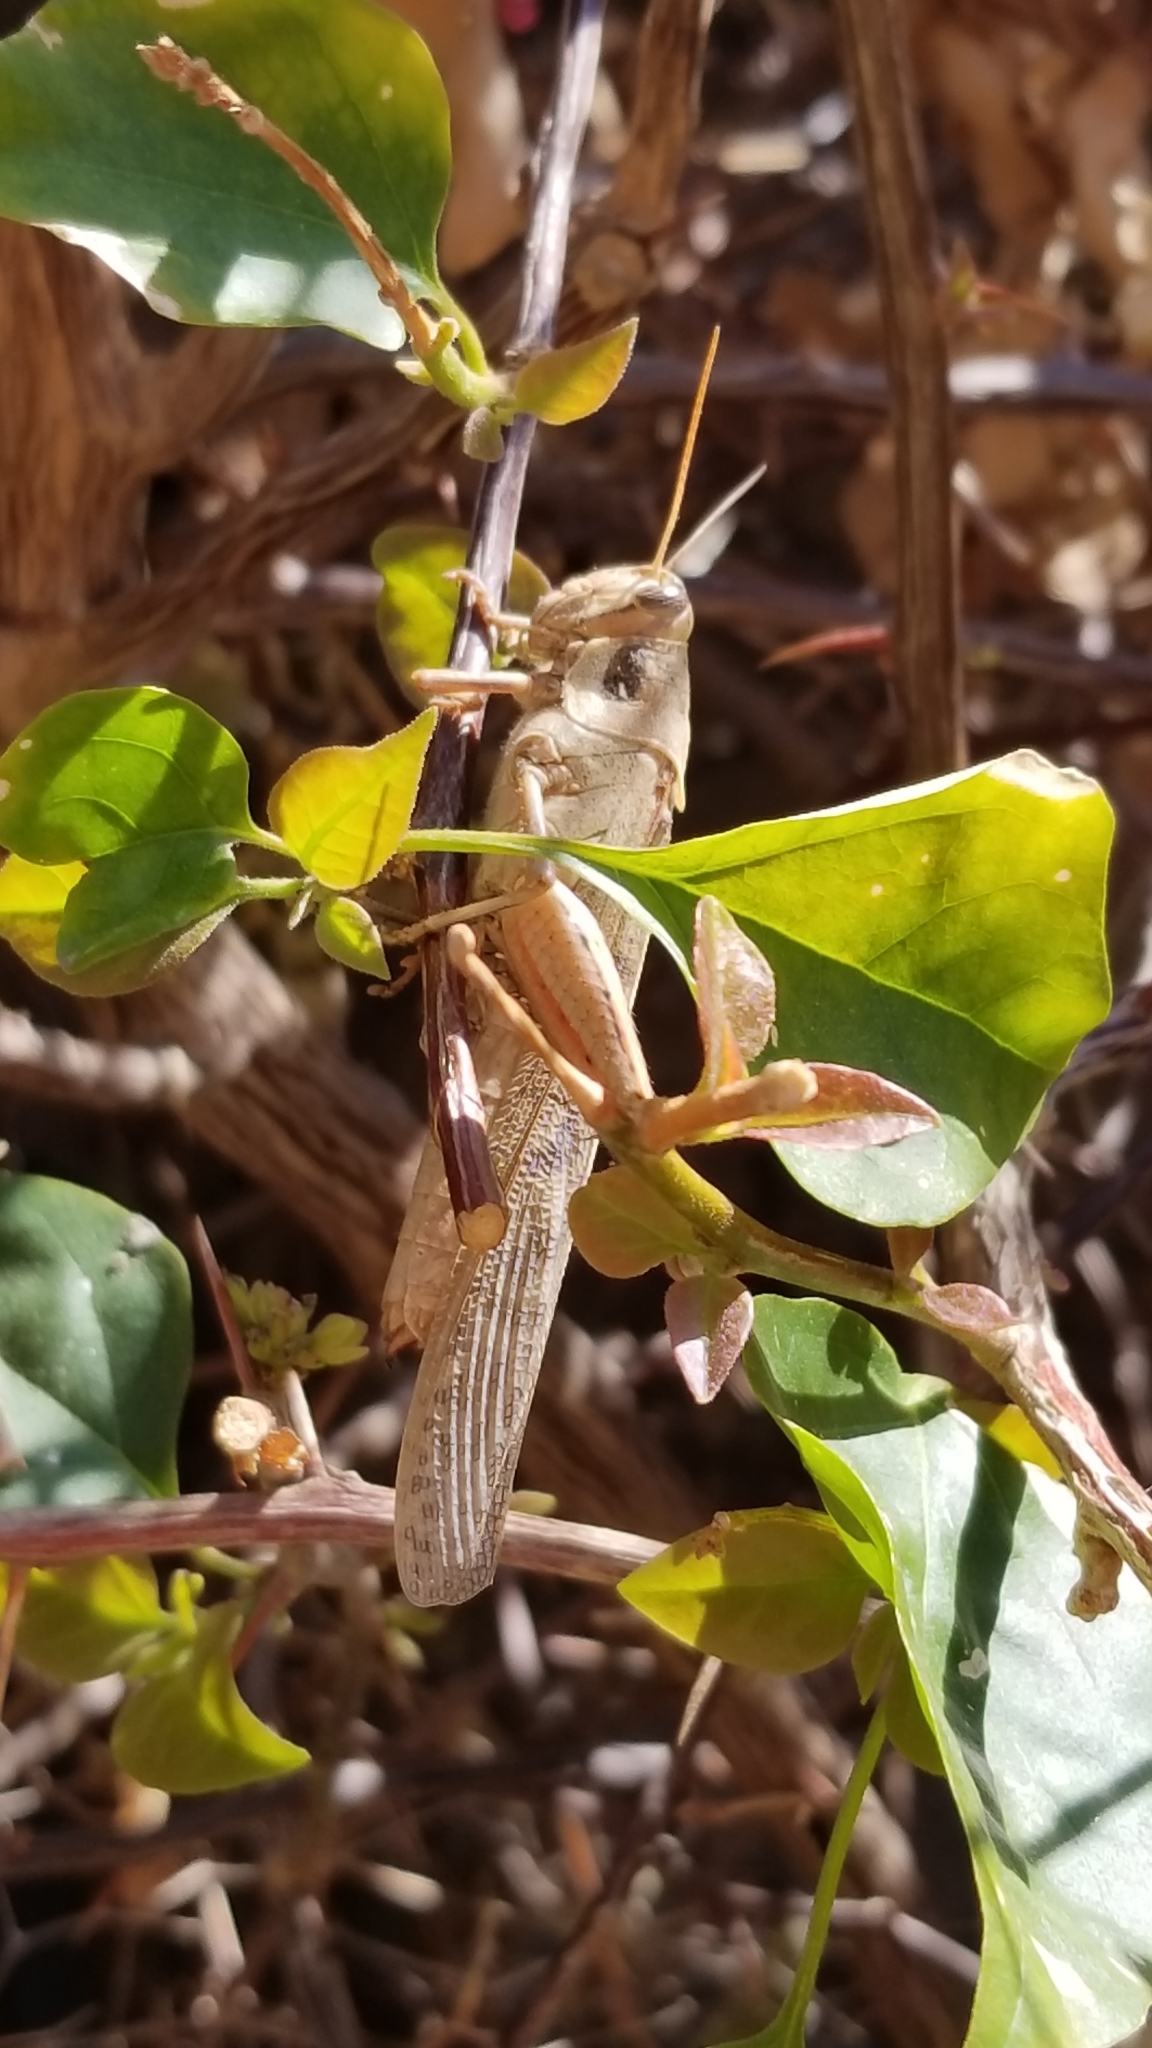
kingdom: Animalia
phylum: Arthropoda
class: Insecta
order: Orthoptera
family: Acrididae
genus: Schistocerca
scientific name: Schistocerca nitens
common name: Vagrant grasshopper
